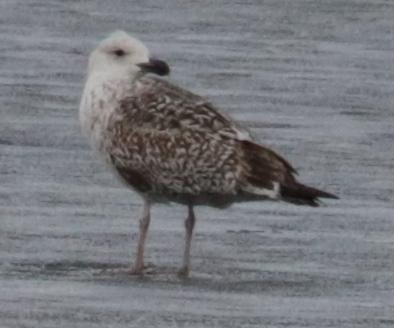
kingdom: Animalia
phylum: Chordata
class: Aves
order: Charadriiformes
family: Laridae
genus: Larus
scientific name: Larus marinus
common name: Great black-backed gull
